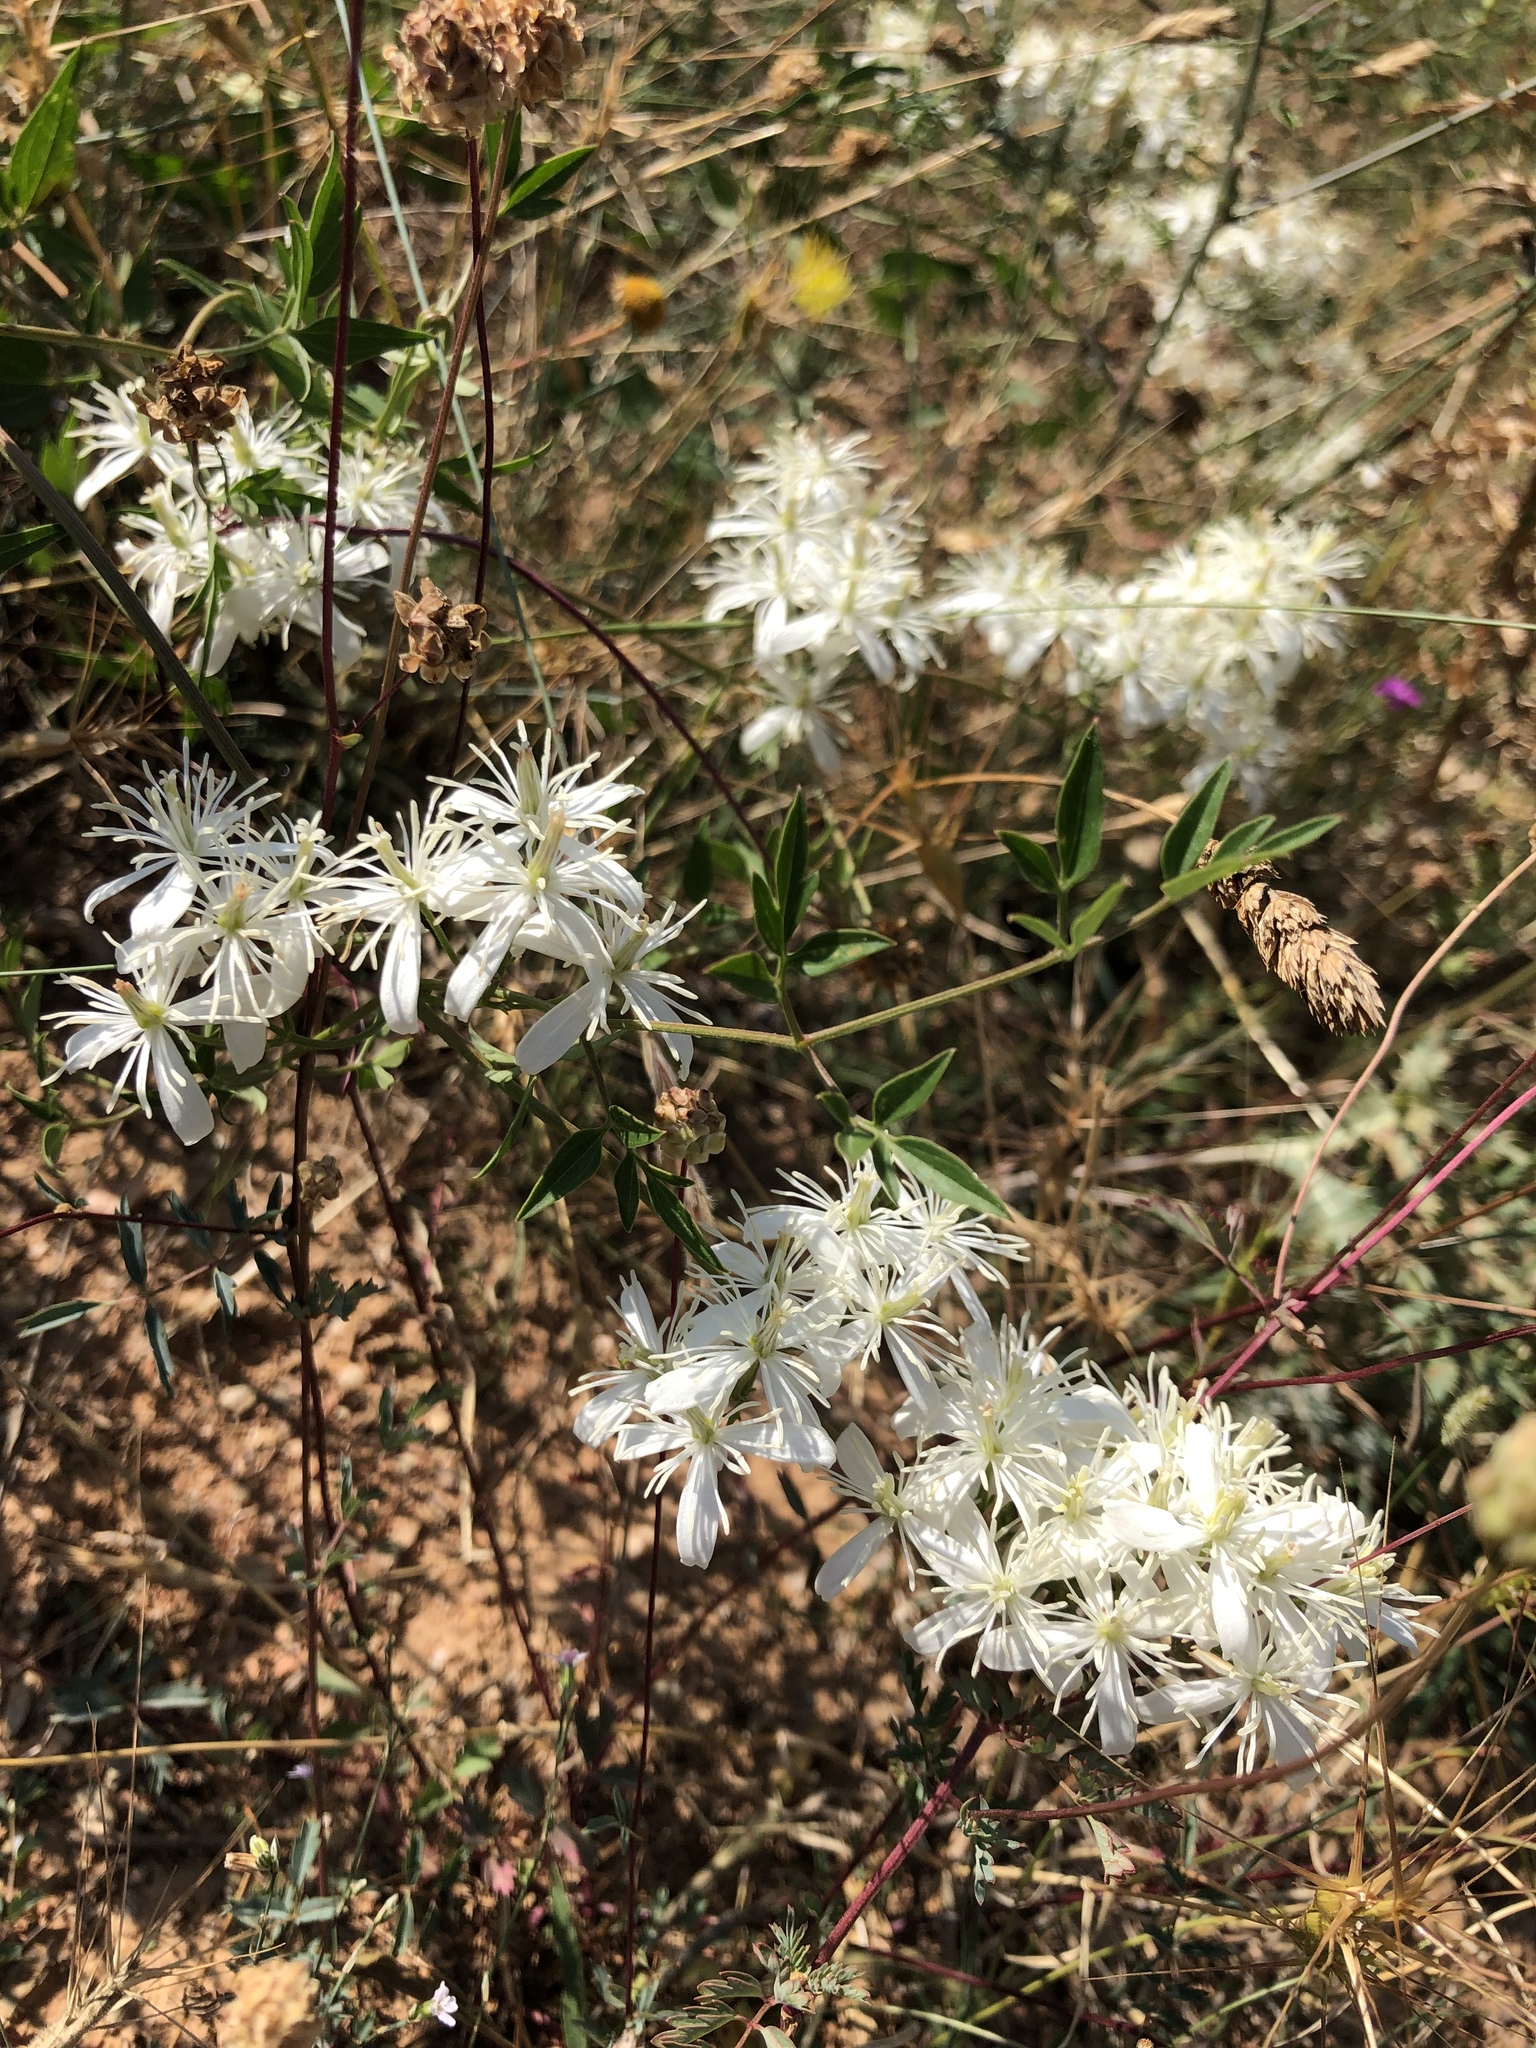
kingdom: Plantae
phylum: Tracheophyta
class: Magnoliopsida
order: Ranunculales
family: Ranunculaceae
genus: Clematis
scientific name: Clematis recta
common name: Ground clematis
